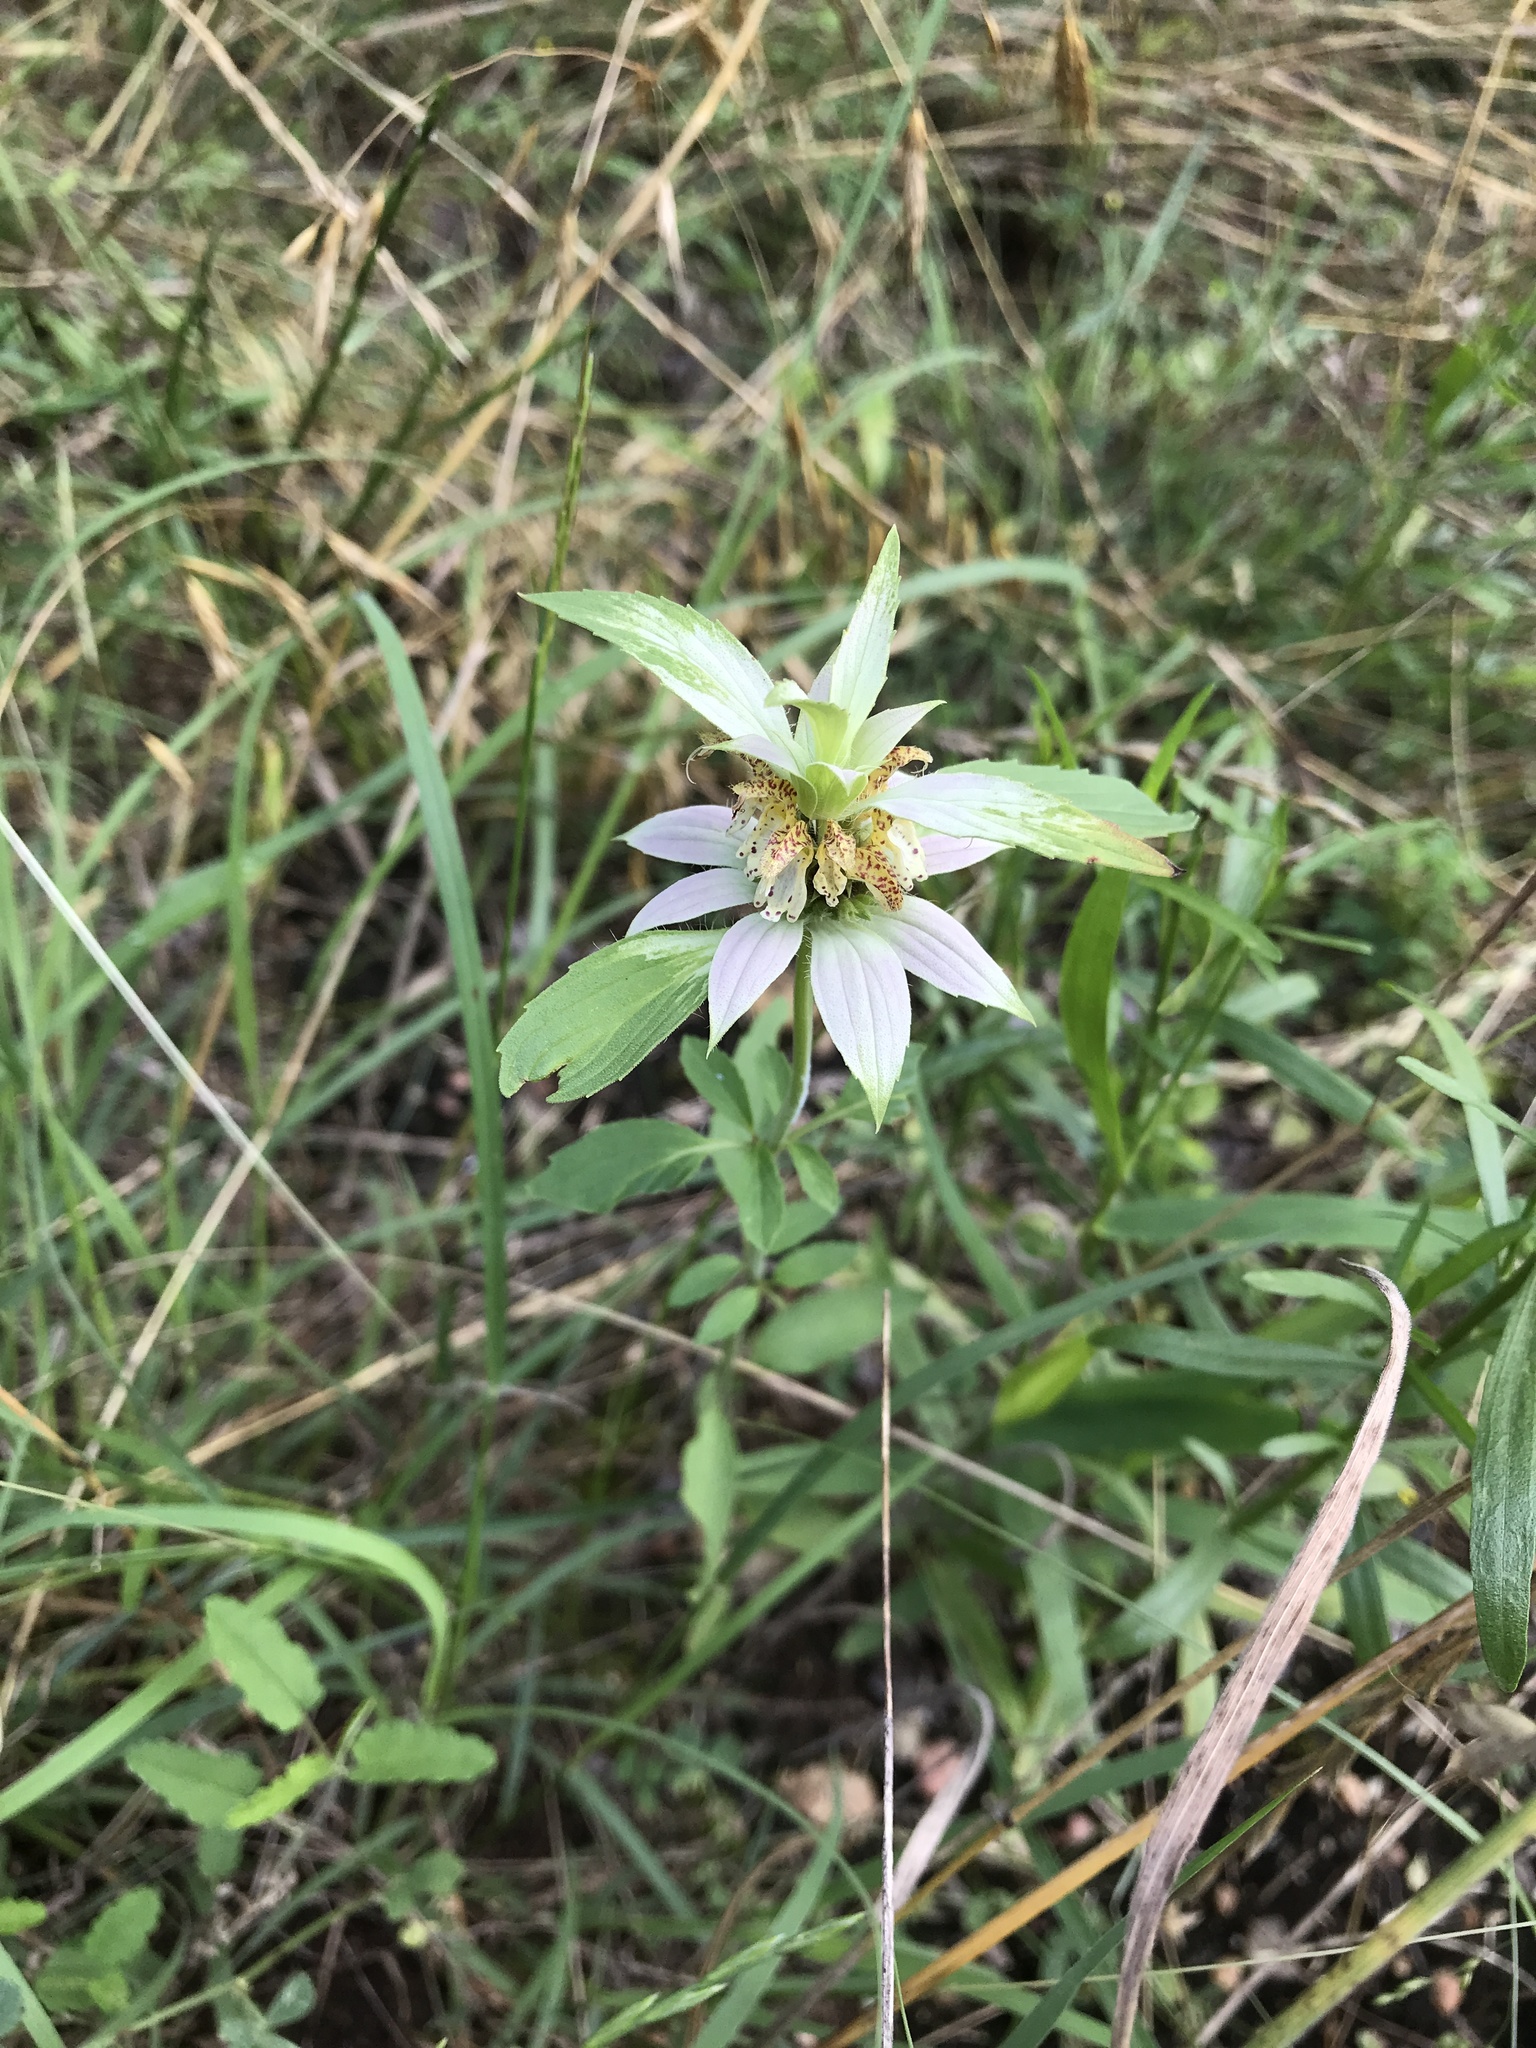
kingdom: Plantae
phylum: Tracheophyta
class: Magnoliopsida
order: Lamiales
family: Lamiaceae
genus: Monarda
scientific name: Monarda punctata
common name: Dotted monarda
